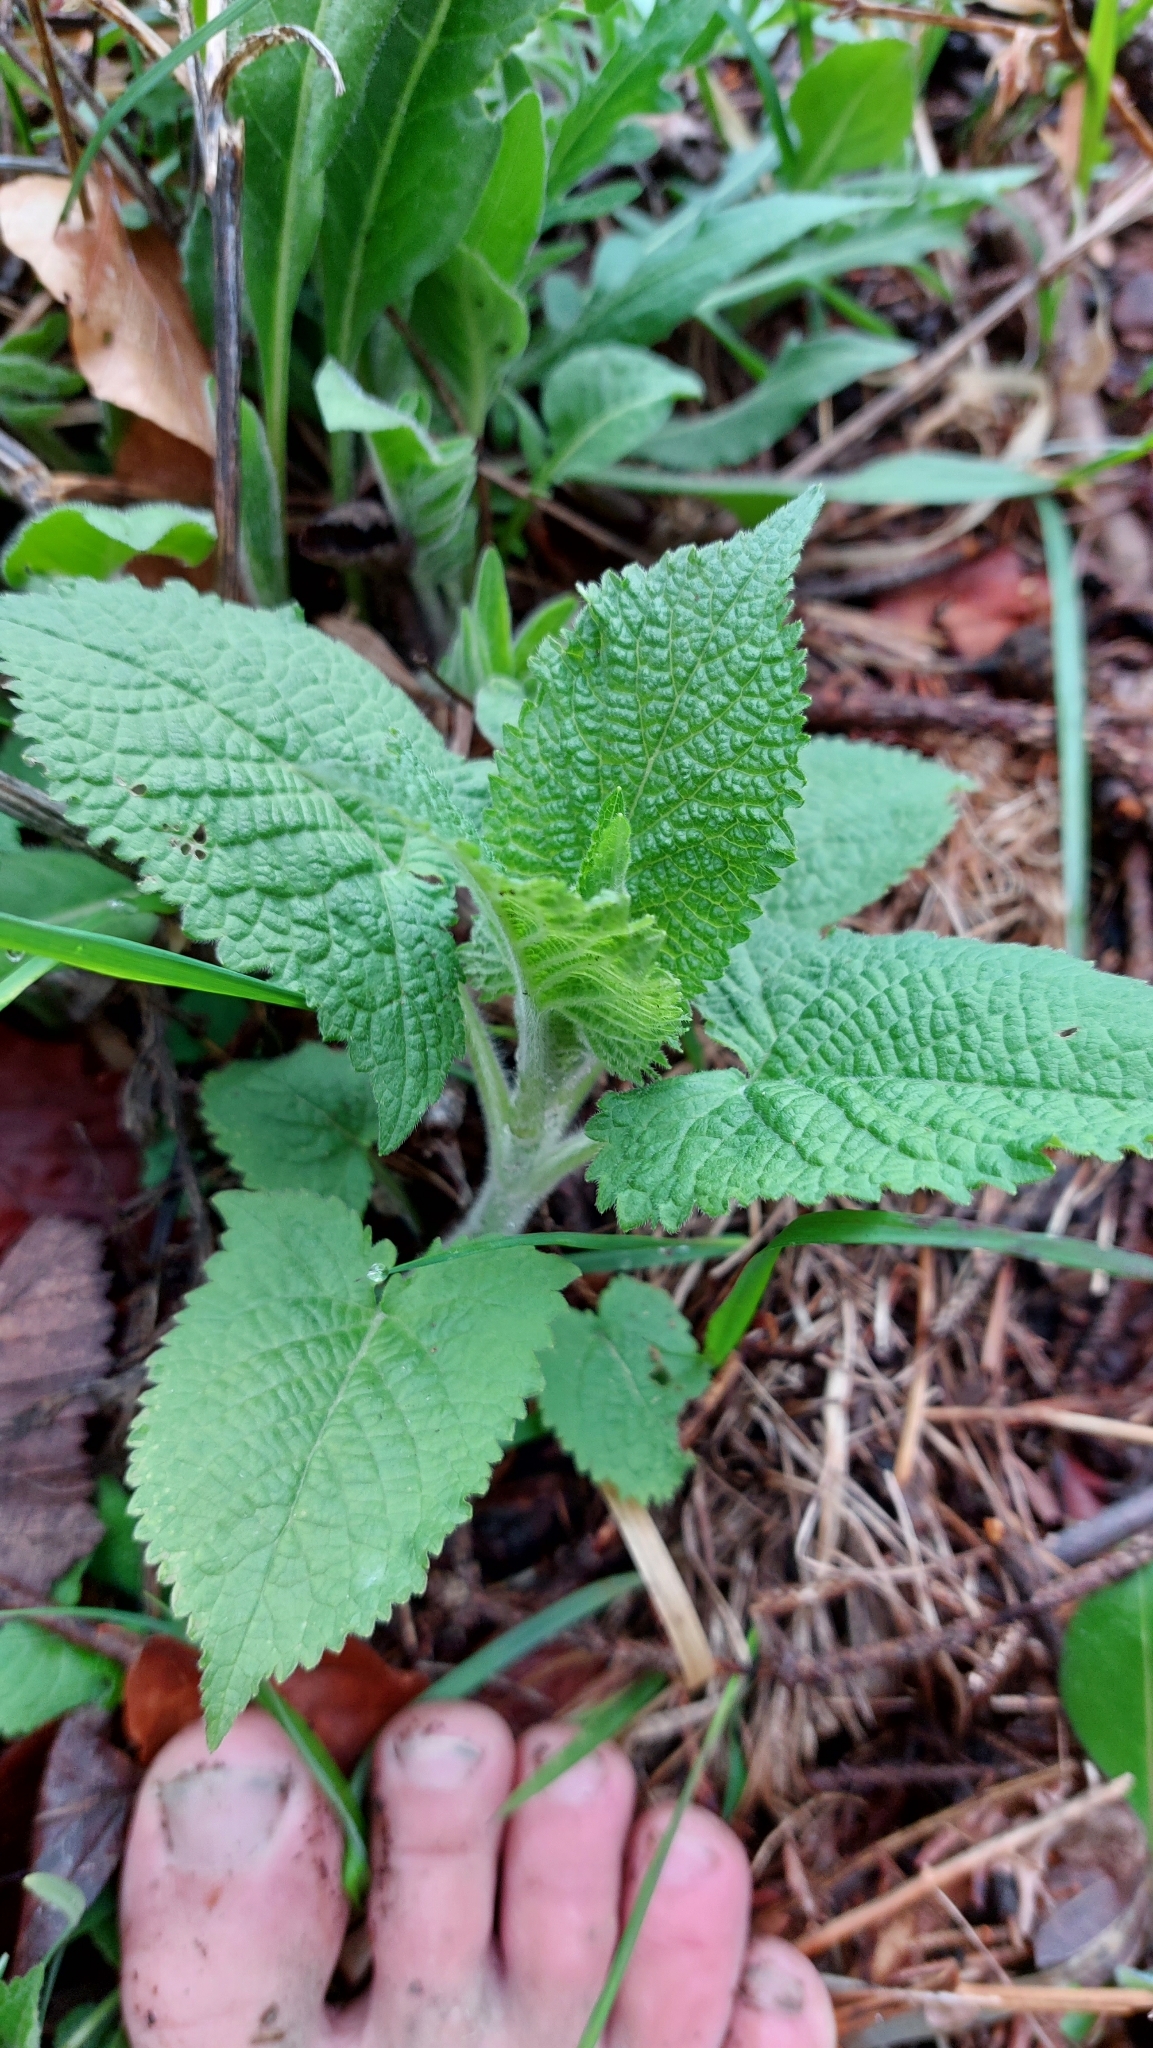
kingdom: Plantae
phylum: Tracheophyta
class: Magnoliopsida
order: Lamiales
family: Lamiaceae
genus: Salvia
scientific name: Salvia glutinosa
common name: Sticky clary
